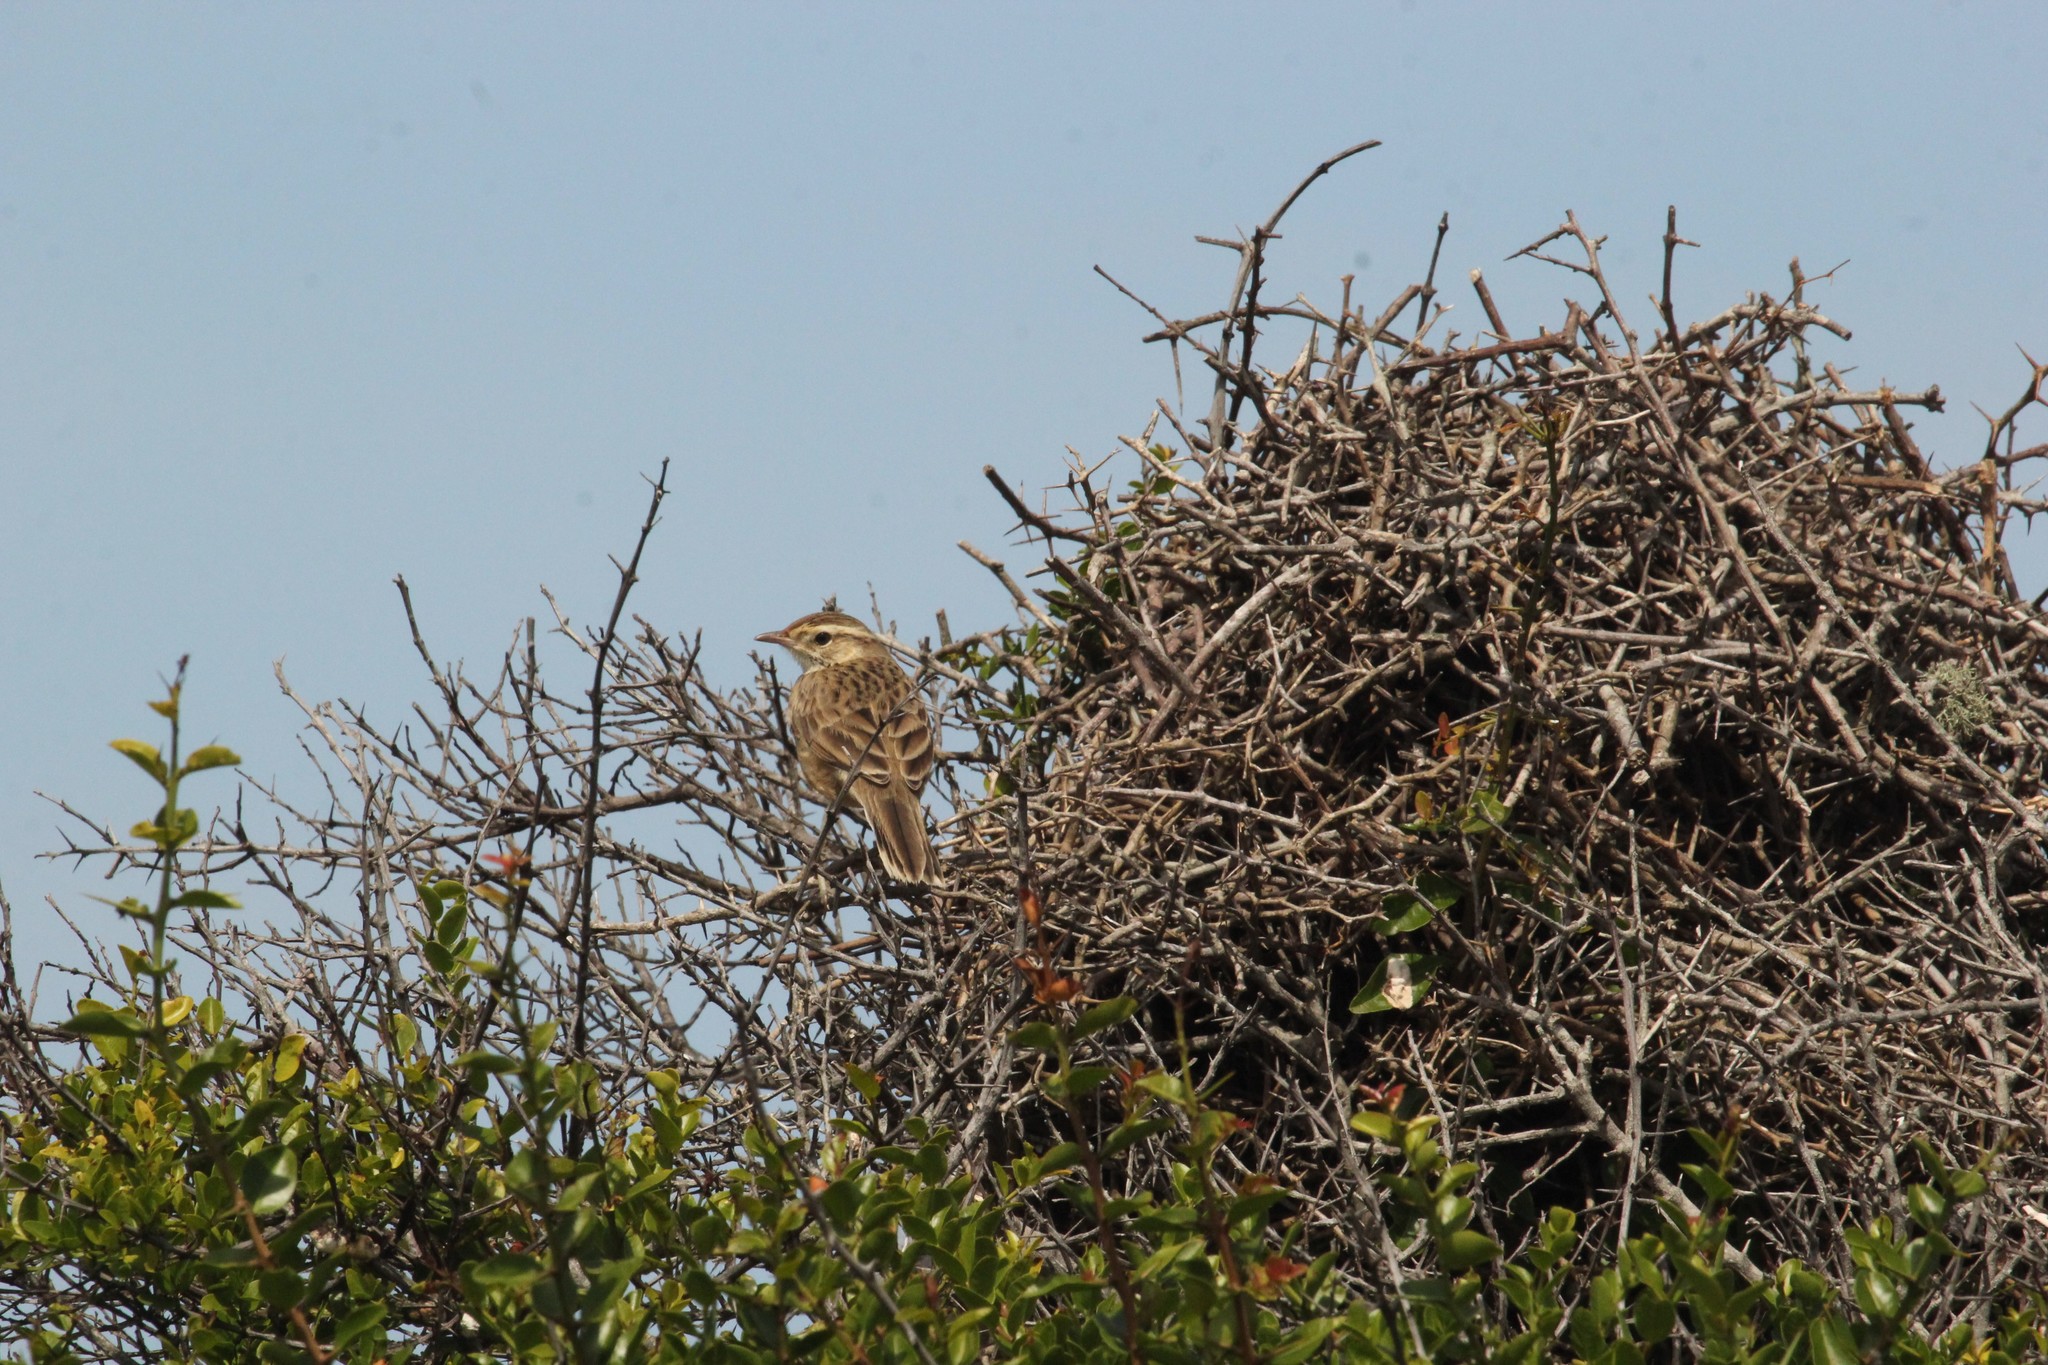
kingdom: Animalia
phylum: Chordata
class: Aves
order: Passeriformes
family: Furnariidae
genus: Anumbius
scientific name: Anumbius annumbi
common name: Firewood-gatherer
